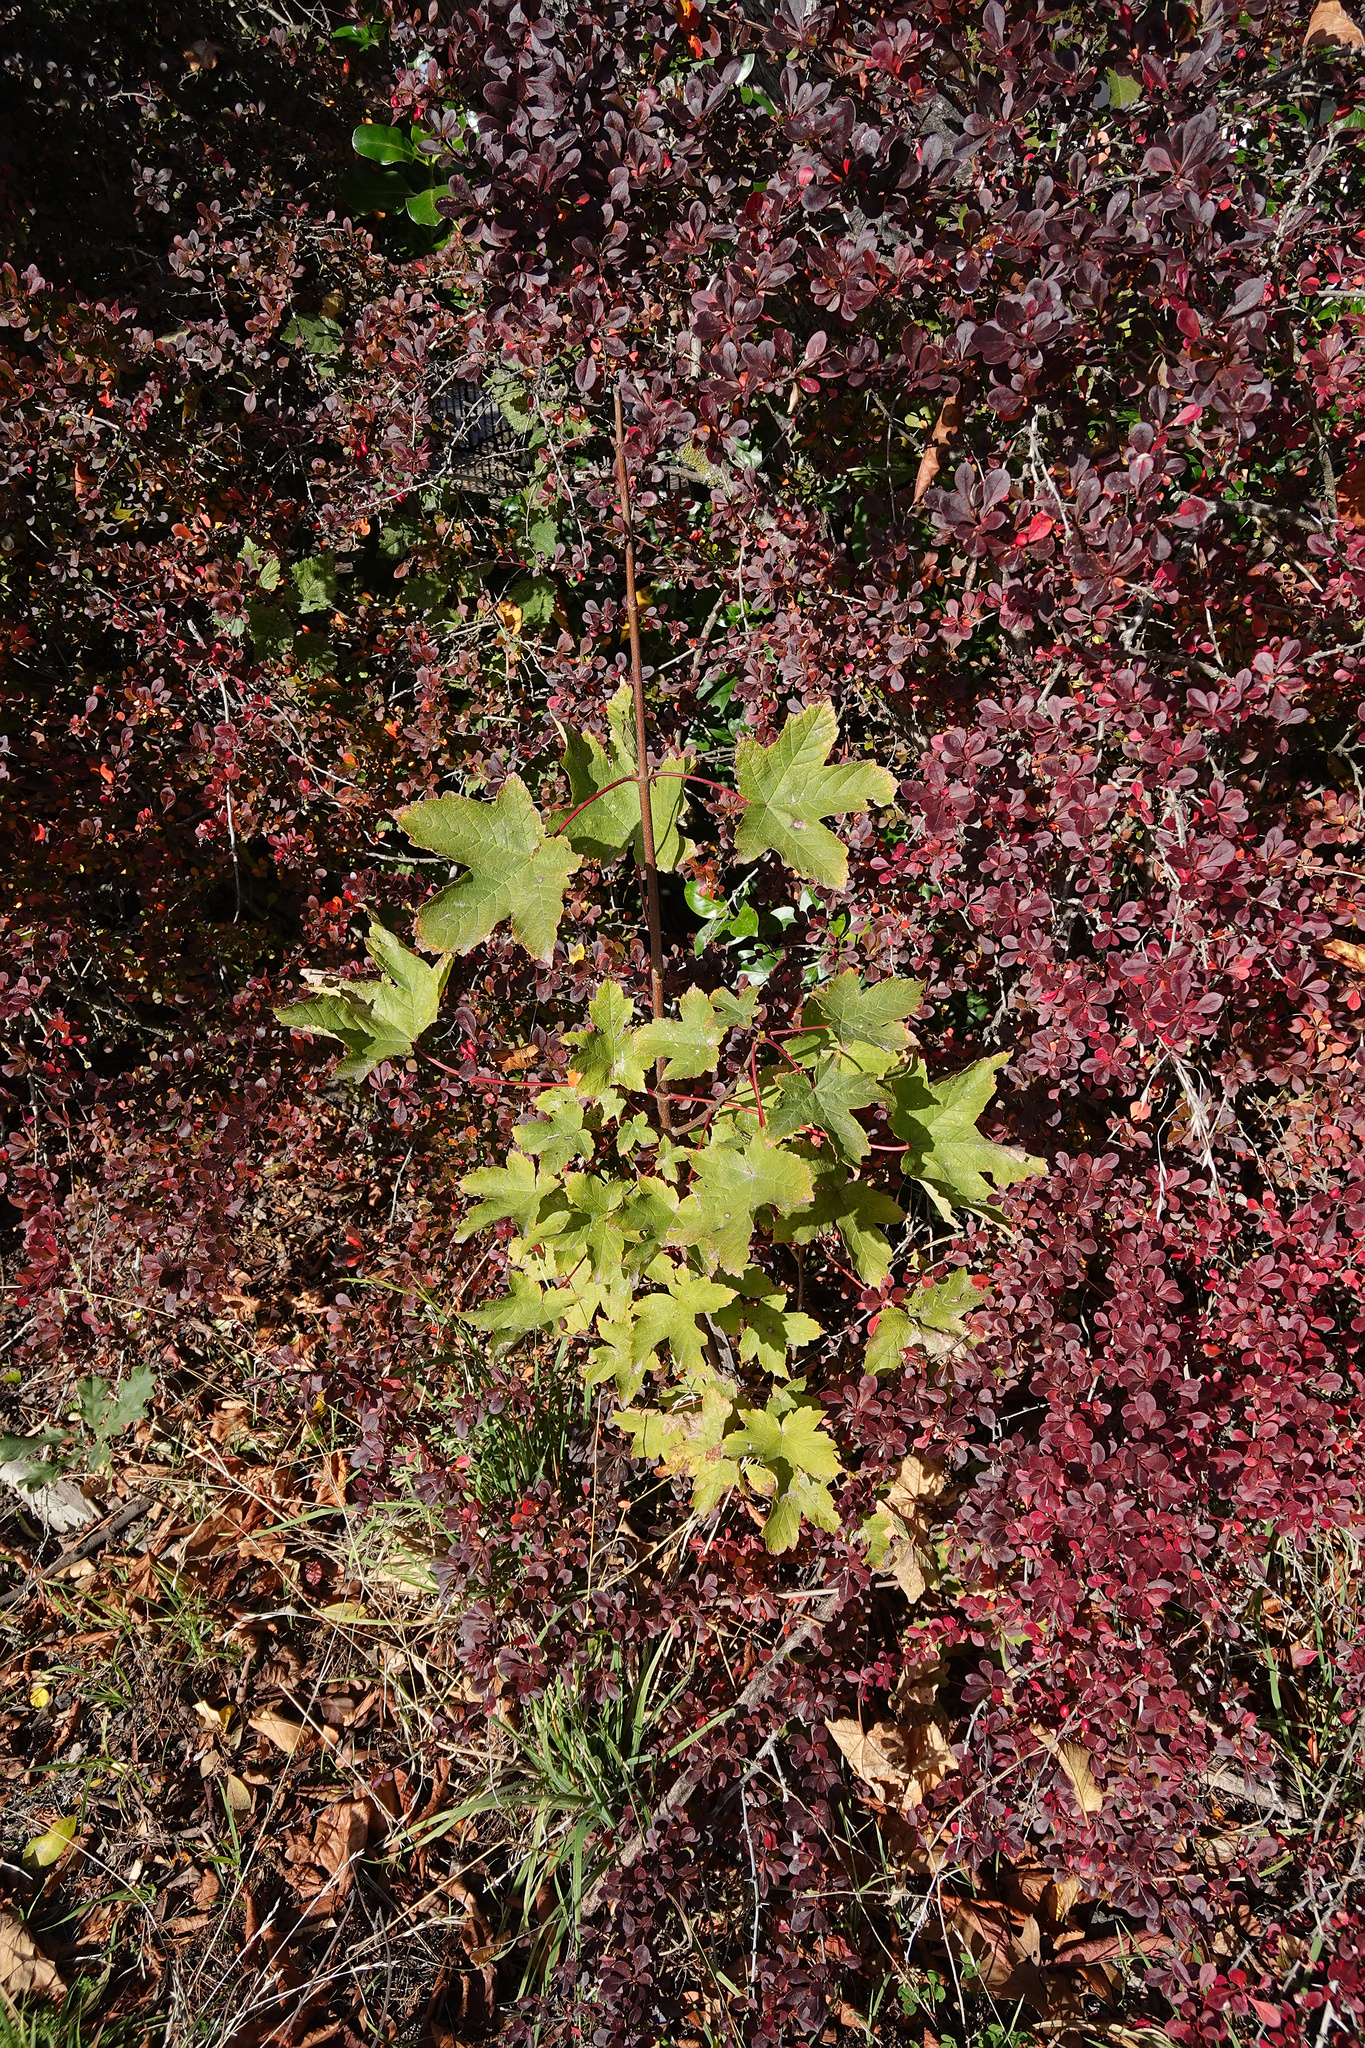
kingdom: Plantae
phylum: Tracheophyta
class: Magnoliopsida
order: Sapindales
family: Sapindaceae
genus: Acer
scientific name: Acer pseudoplatanus
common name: Sycamore
